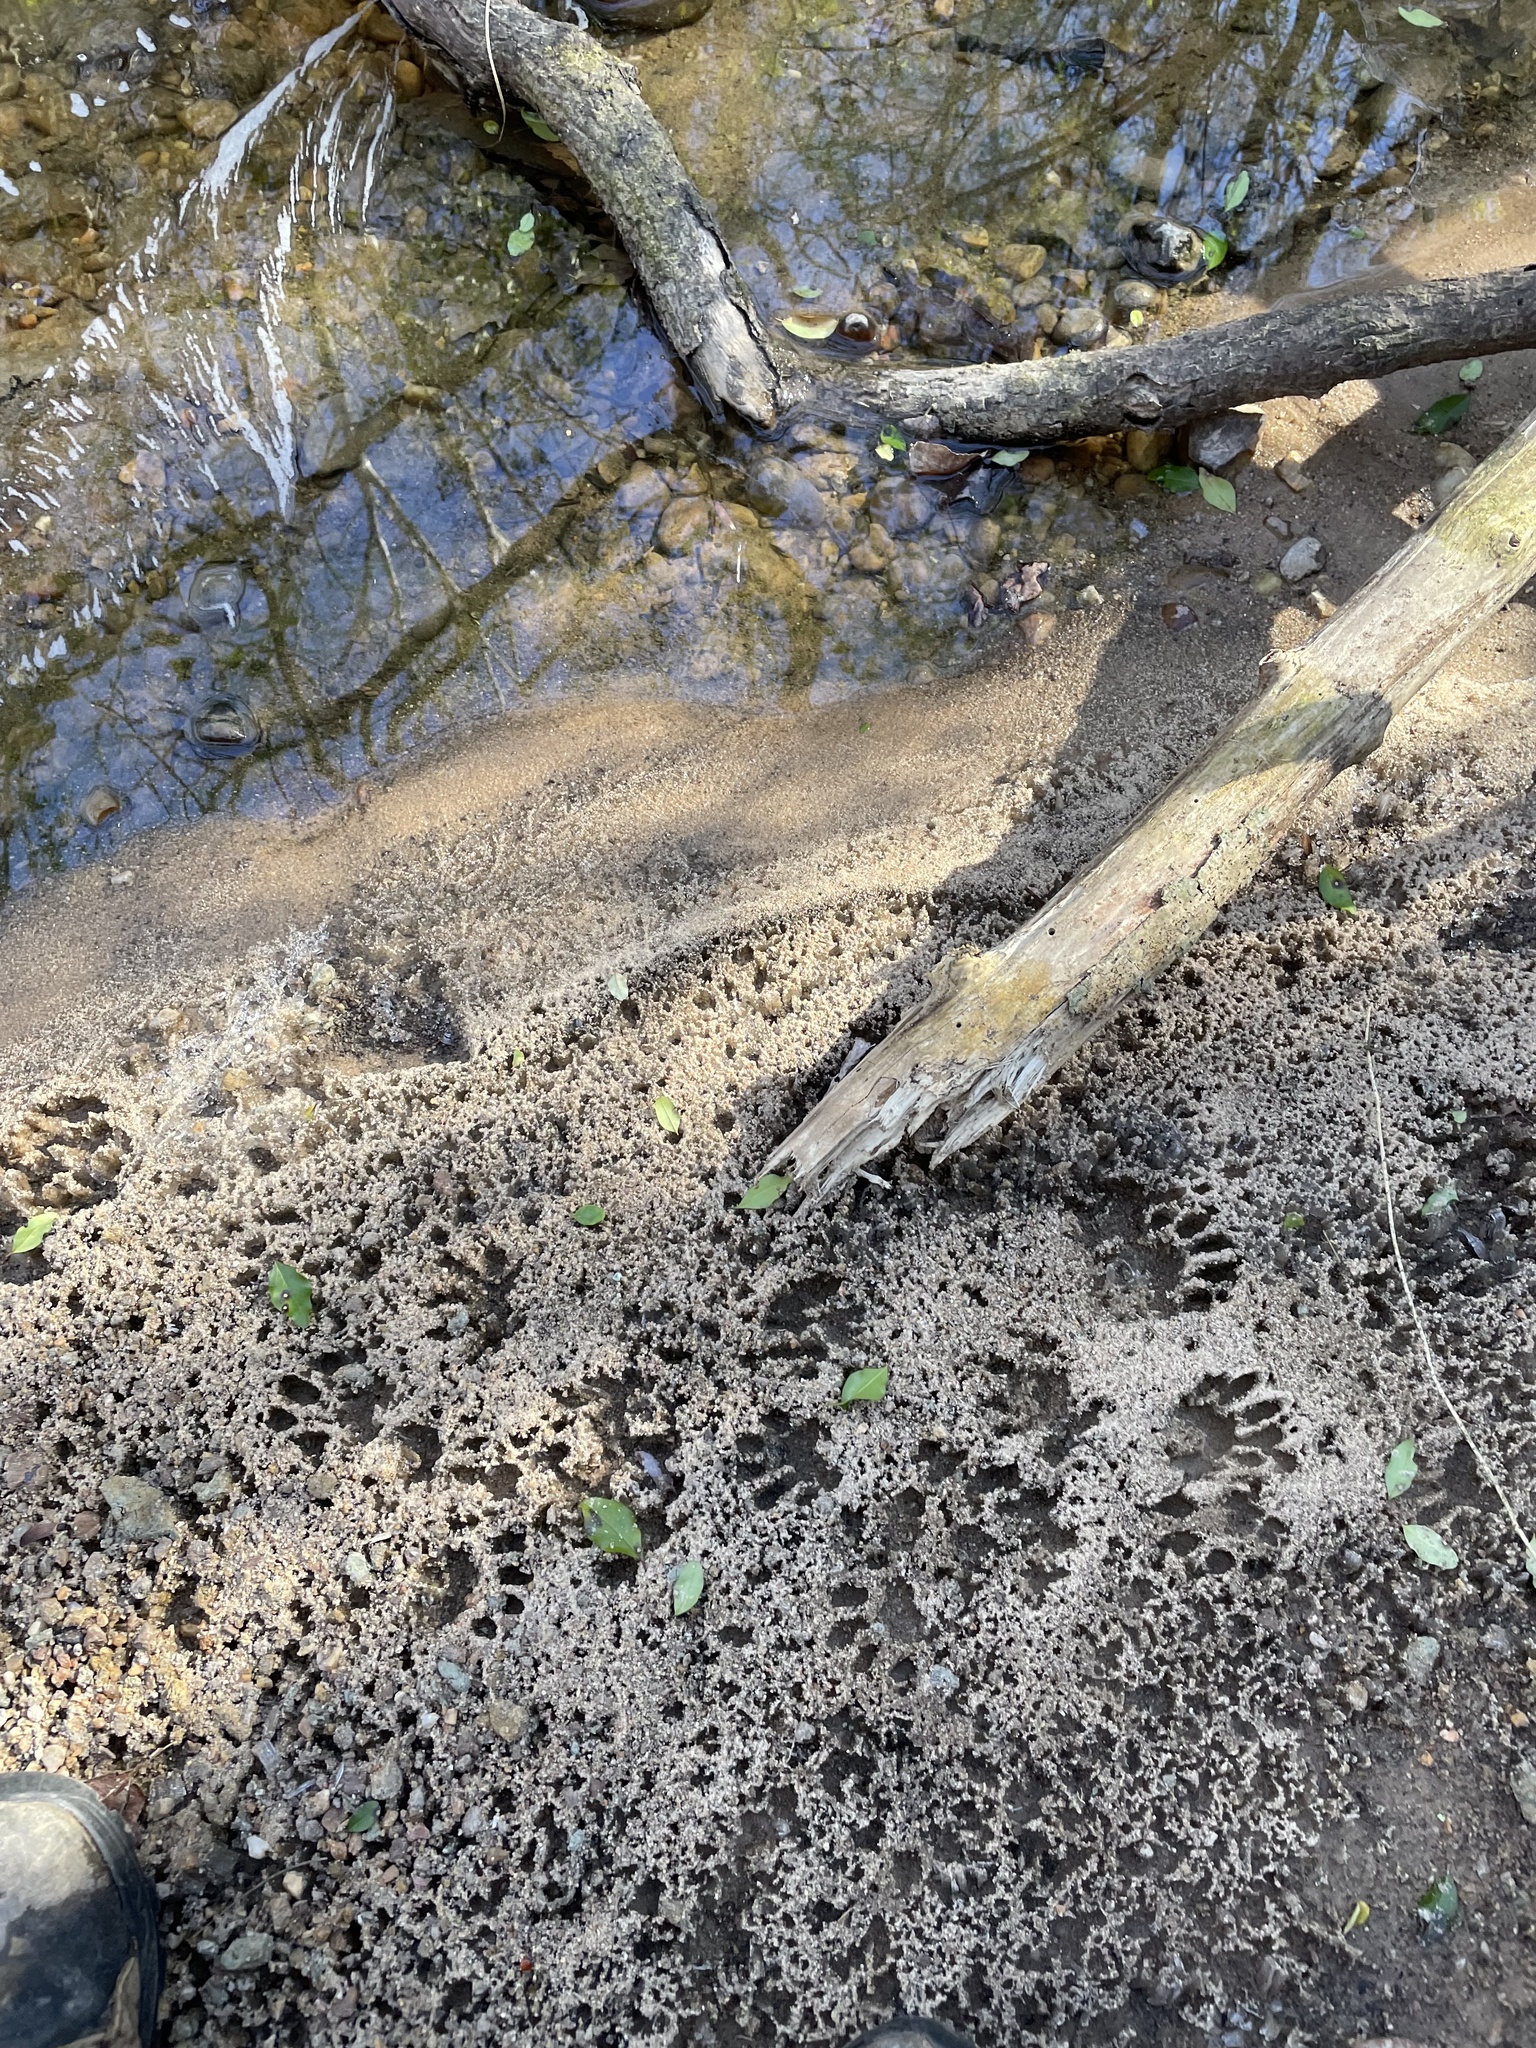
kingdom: Animalia
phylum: Chordata
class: Mammalia
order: Carnivora
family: Procyonidae
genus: Procyon
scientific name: Procyon lotor
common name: Raccoon
